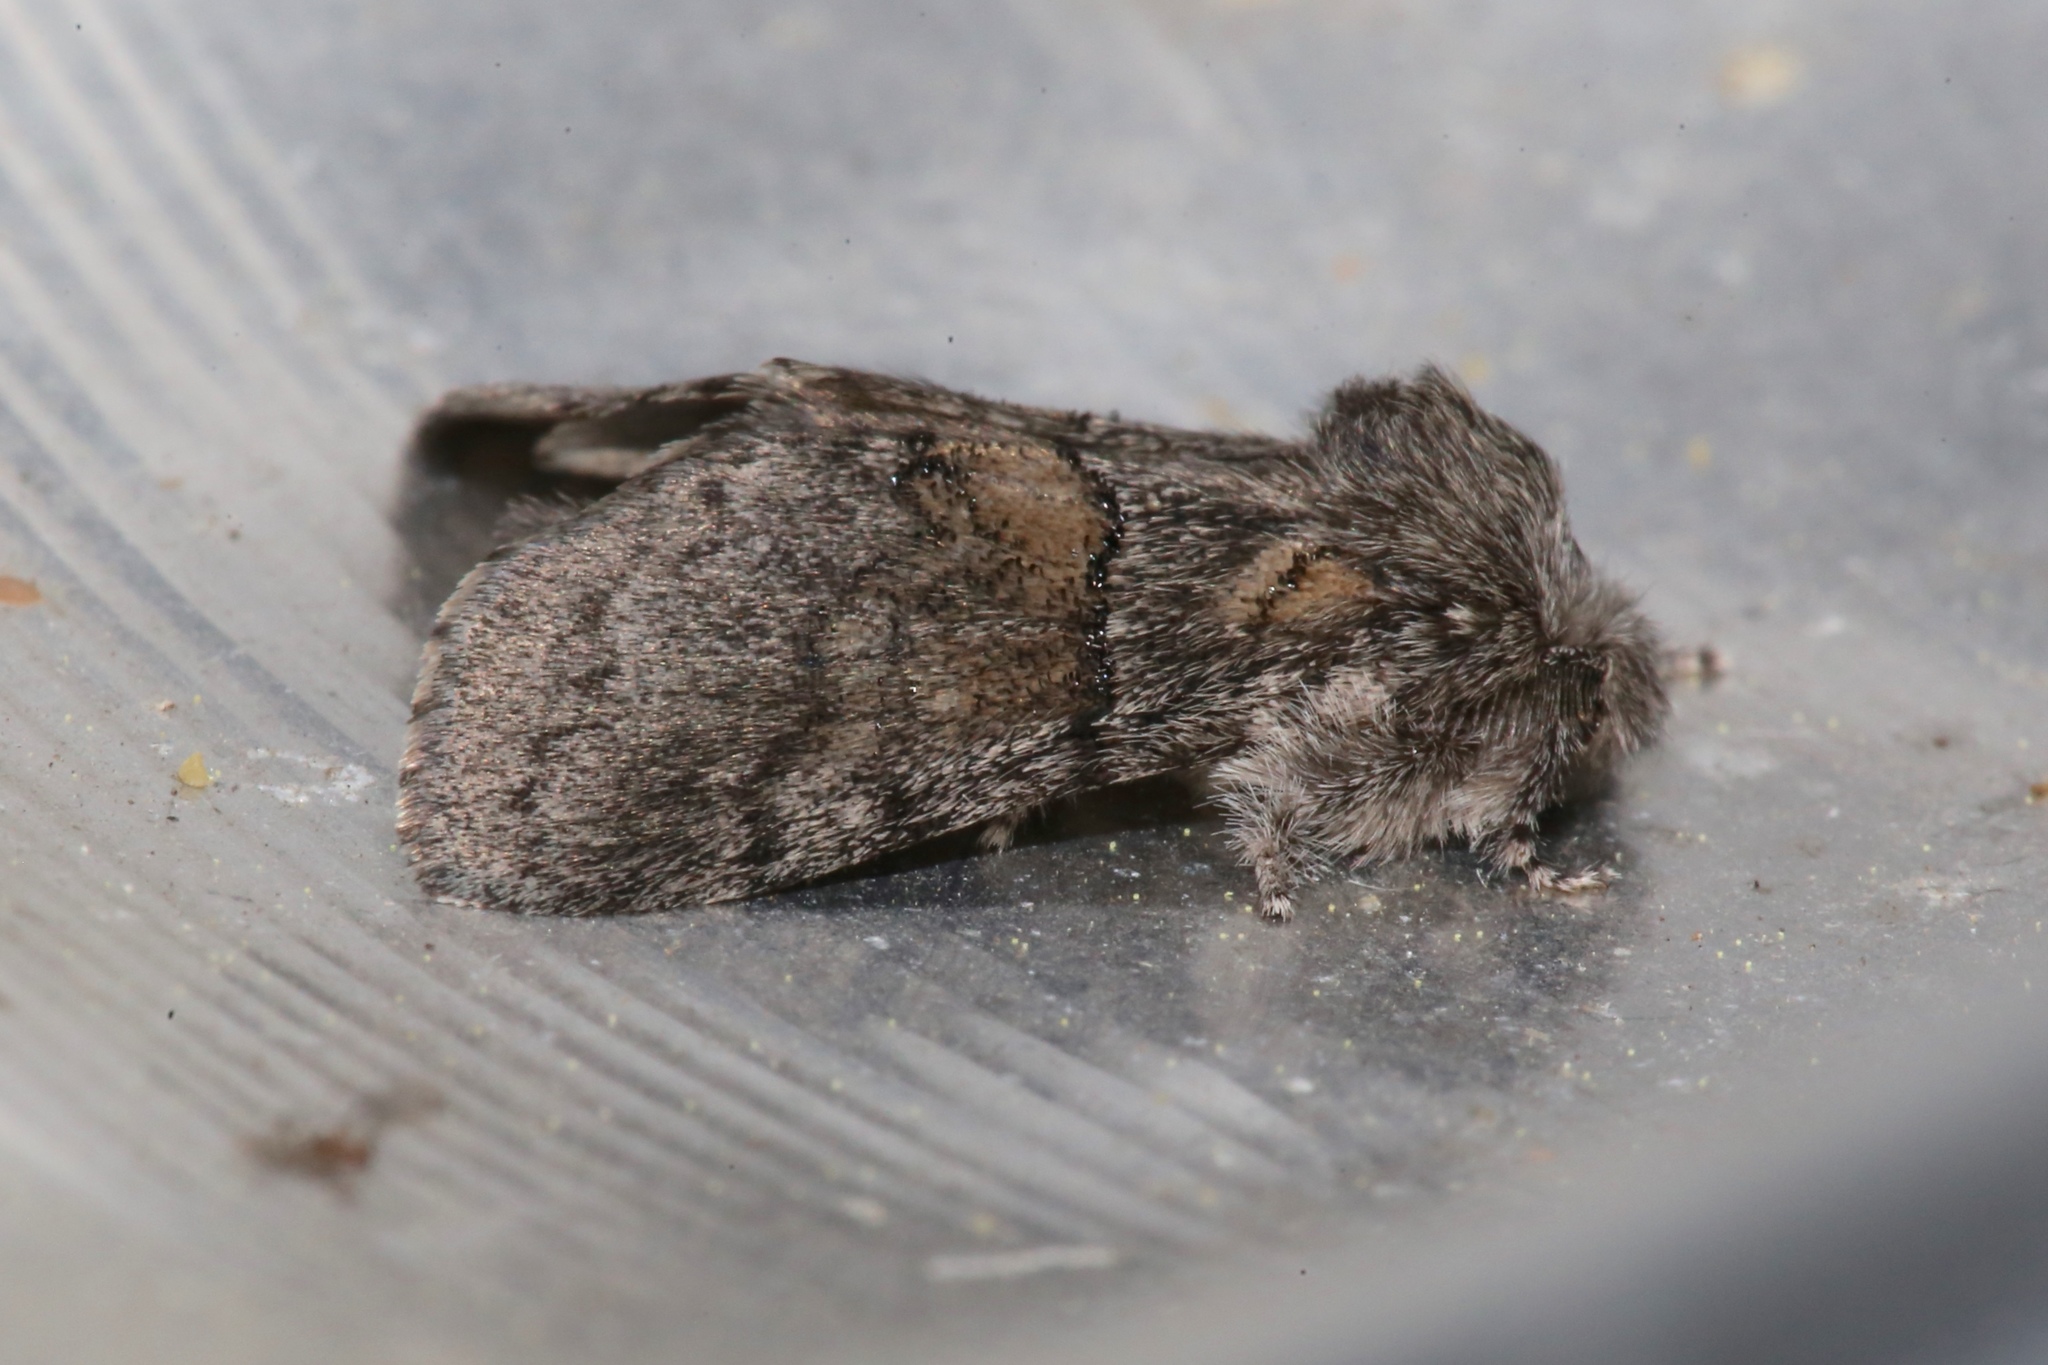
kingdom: Animalia
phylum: Arthropoda
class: Insecta
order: Lepidoptera
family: Notodontidae
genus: Gluphisia
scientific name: Gluphisia septentrionis
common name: Common gluphisia
